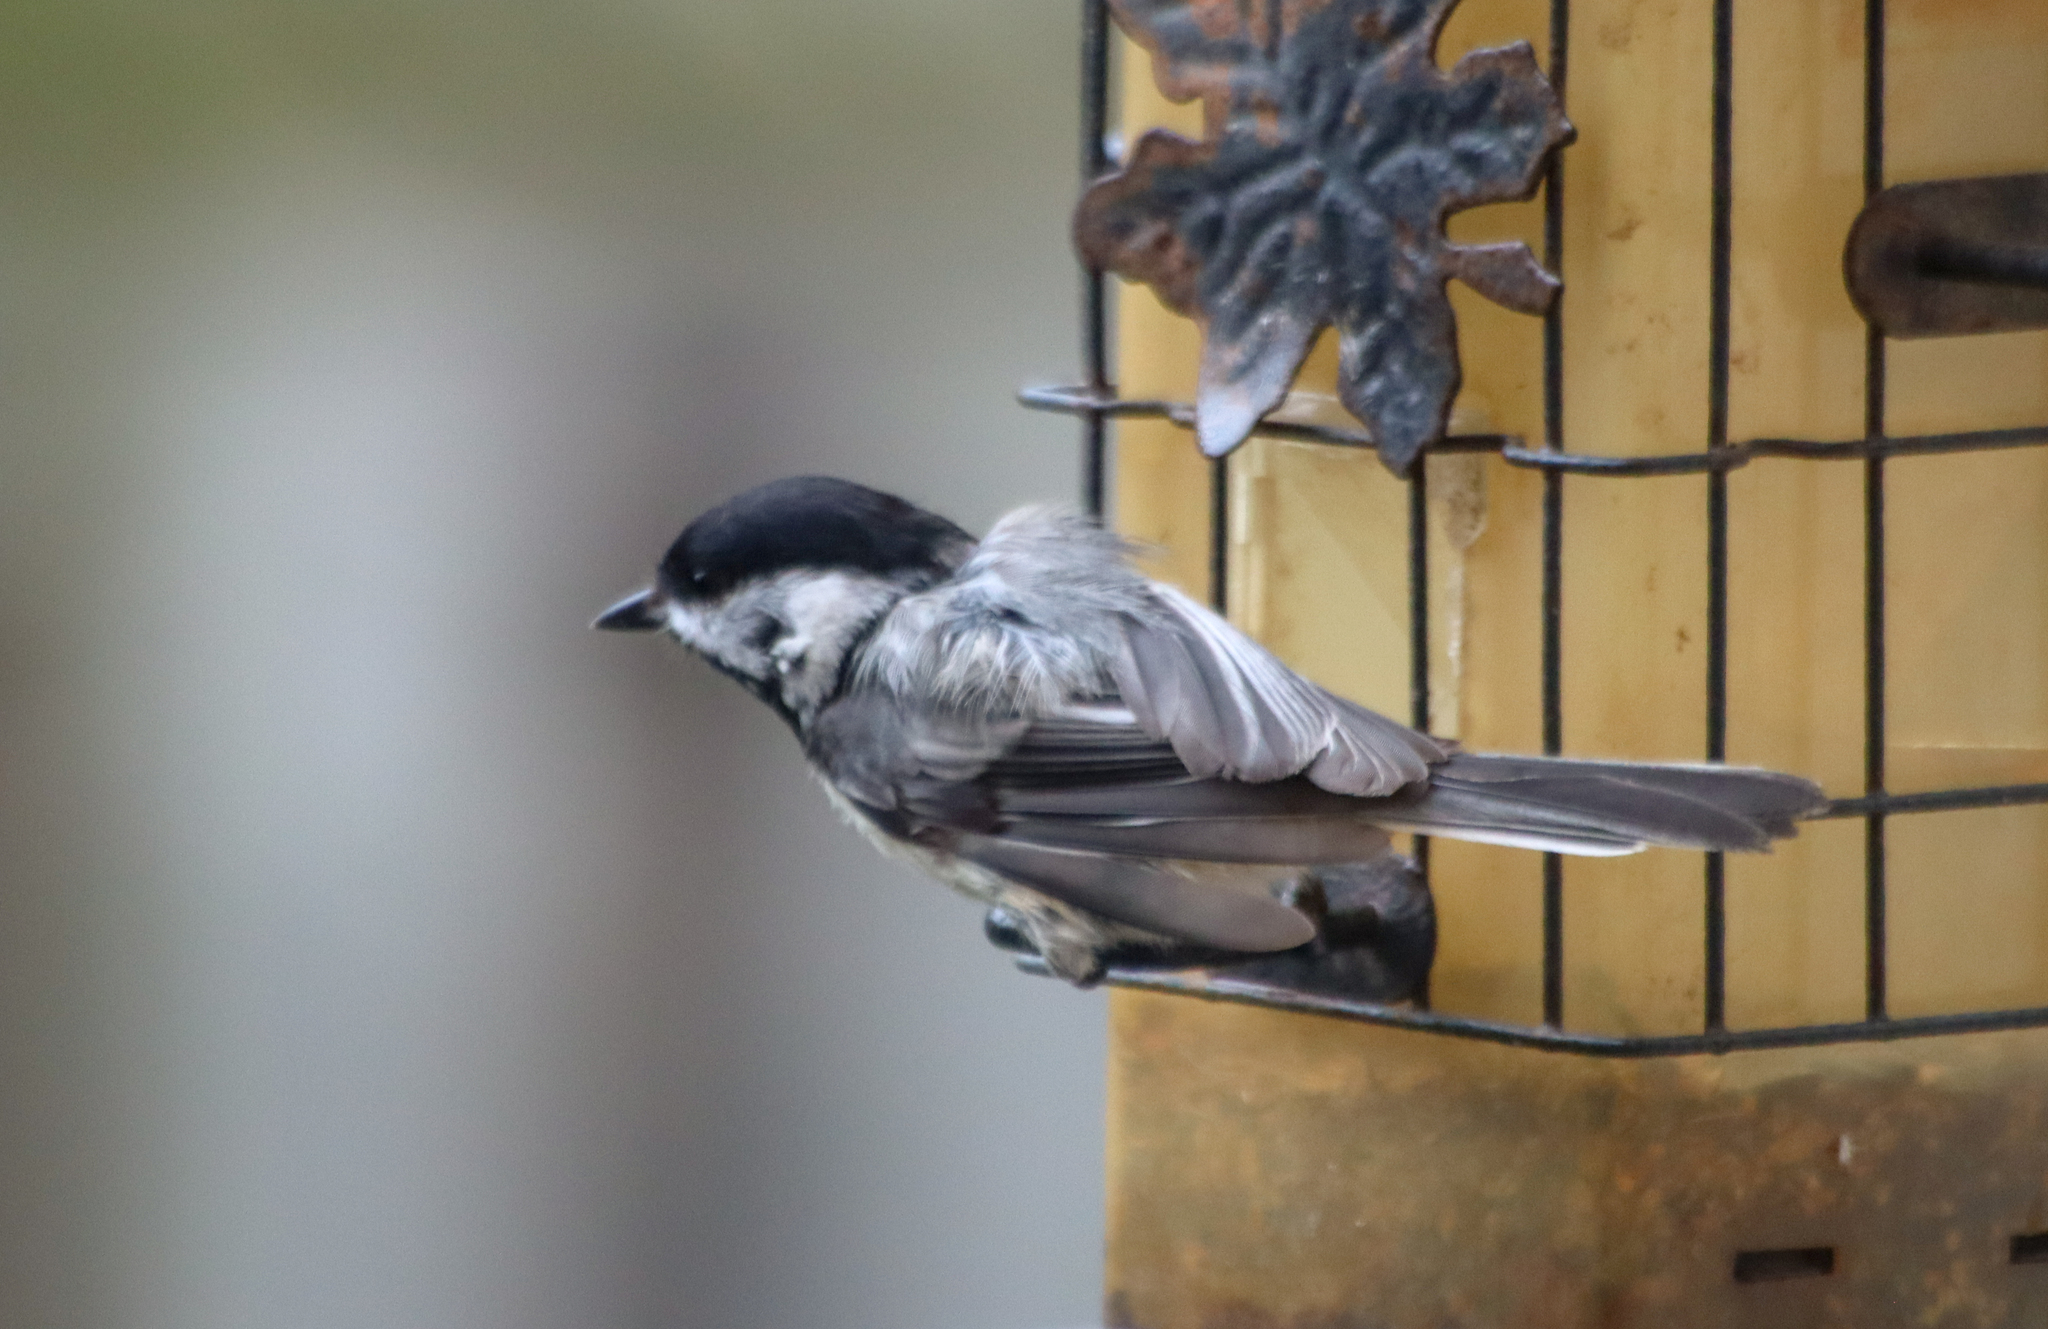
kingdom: Animalia
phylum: Chordata
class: Aves
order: Passeriformes
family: Paridae
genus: Poecile
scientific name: Poecile atricapillus
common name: Black-capped chickadee
